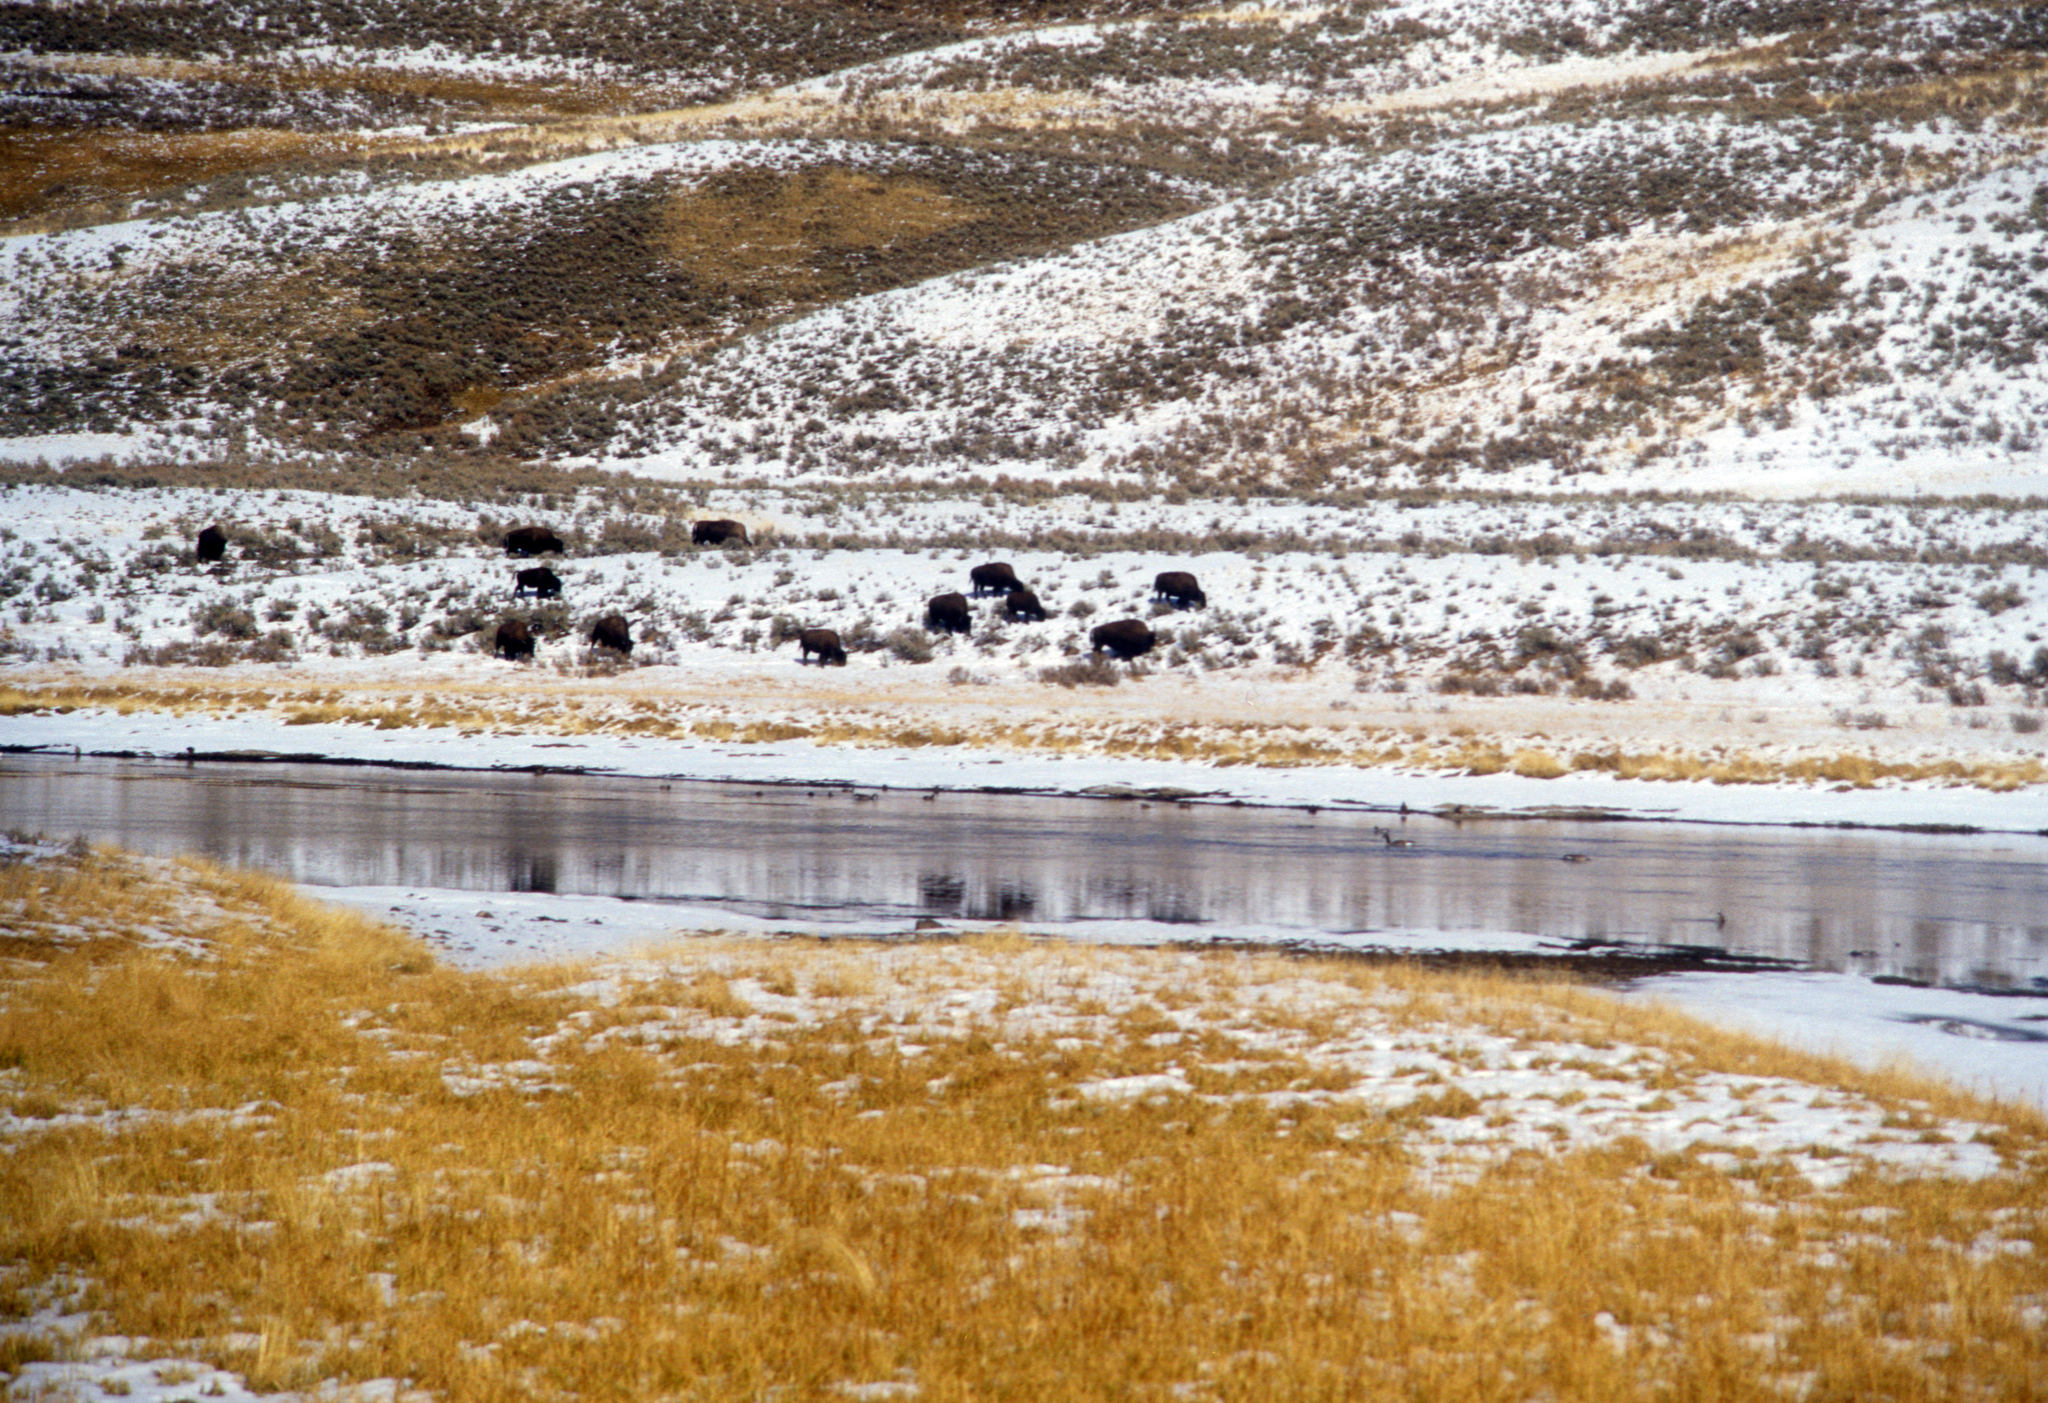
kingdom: Animalia
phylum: Chordata
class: Mammalia
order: Artiodactyla
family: Bovidae
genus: Bison
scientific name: Bison bison
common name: American bison
